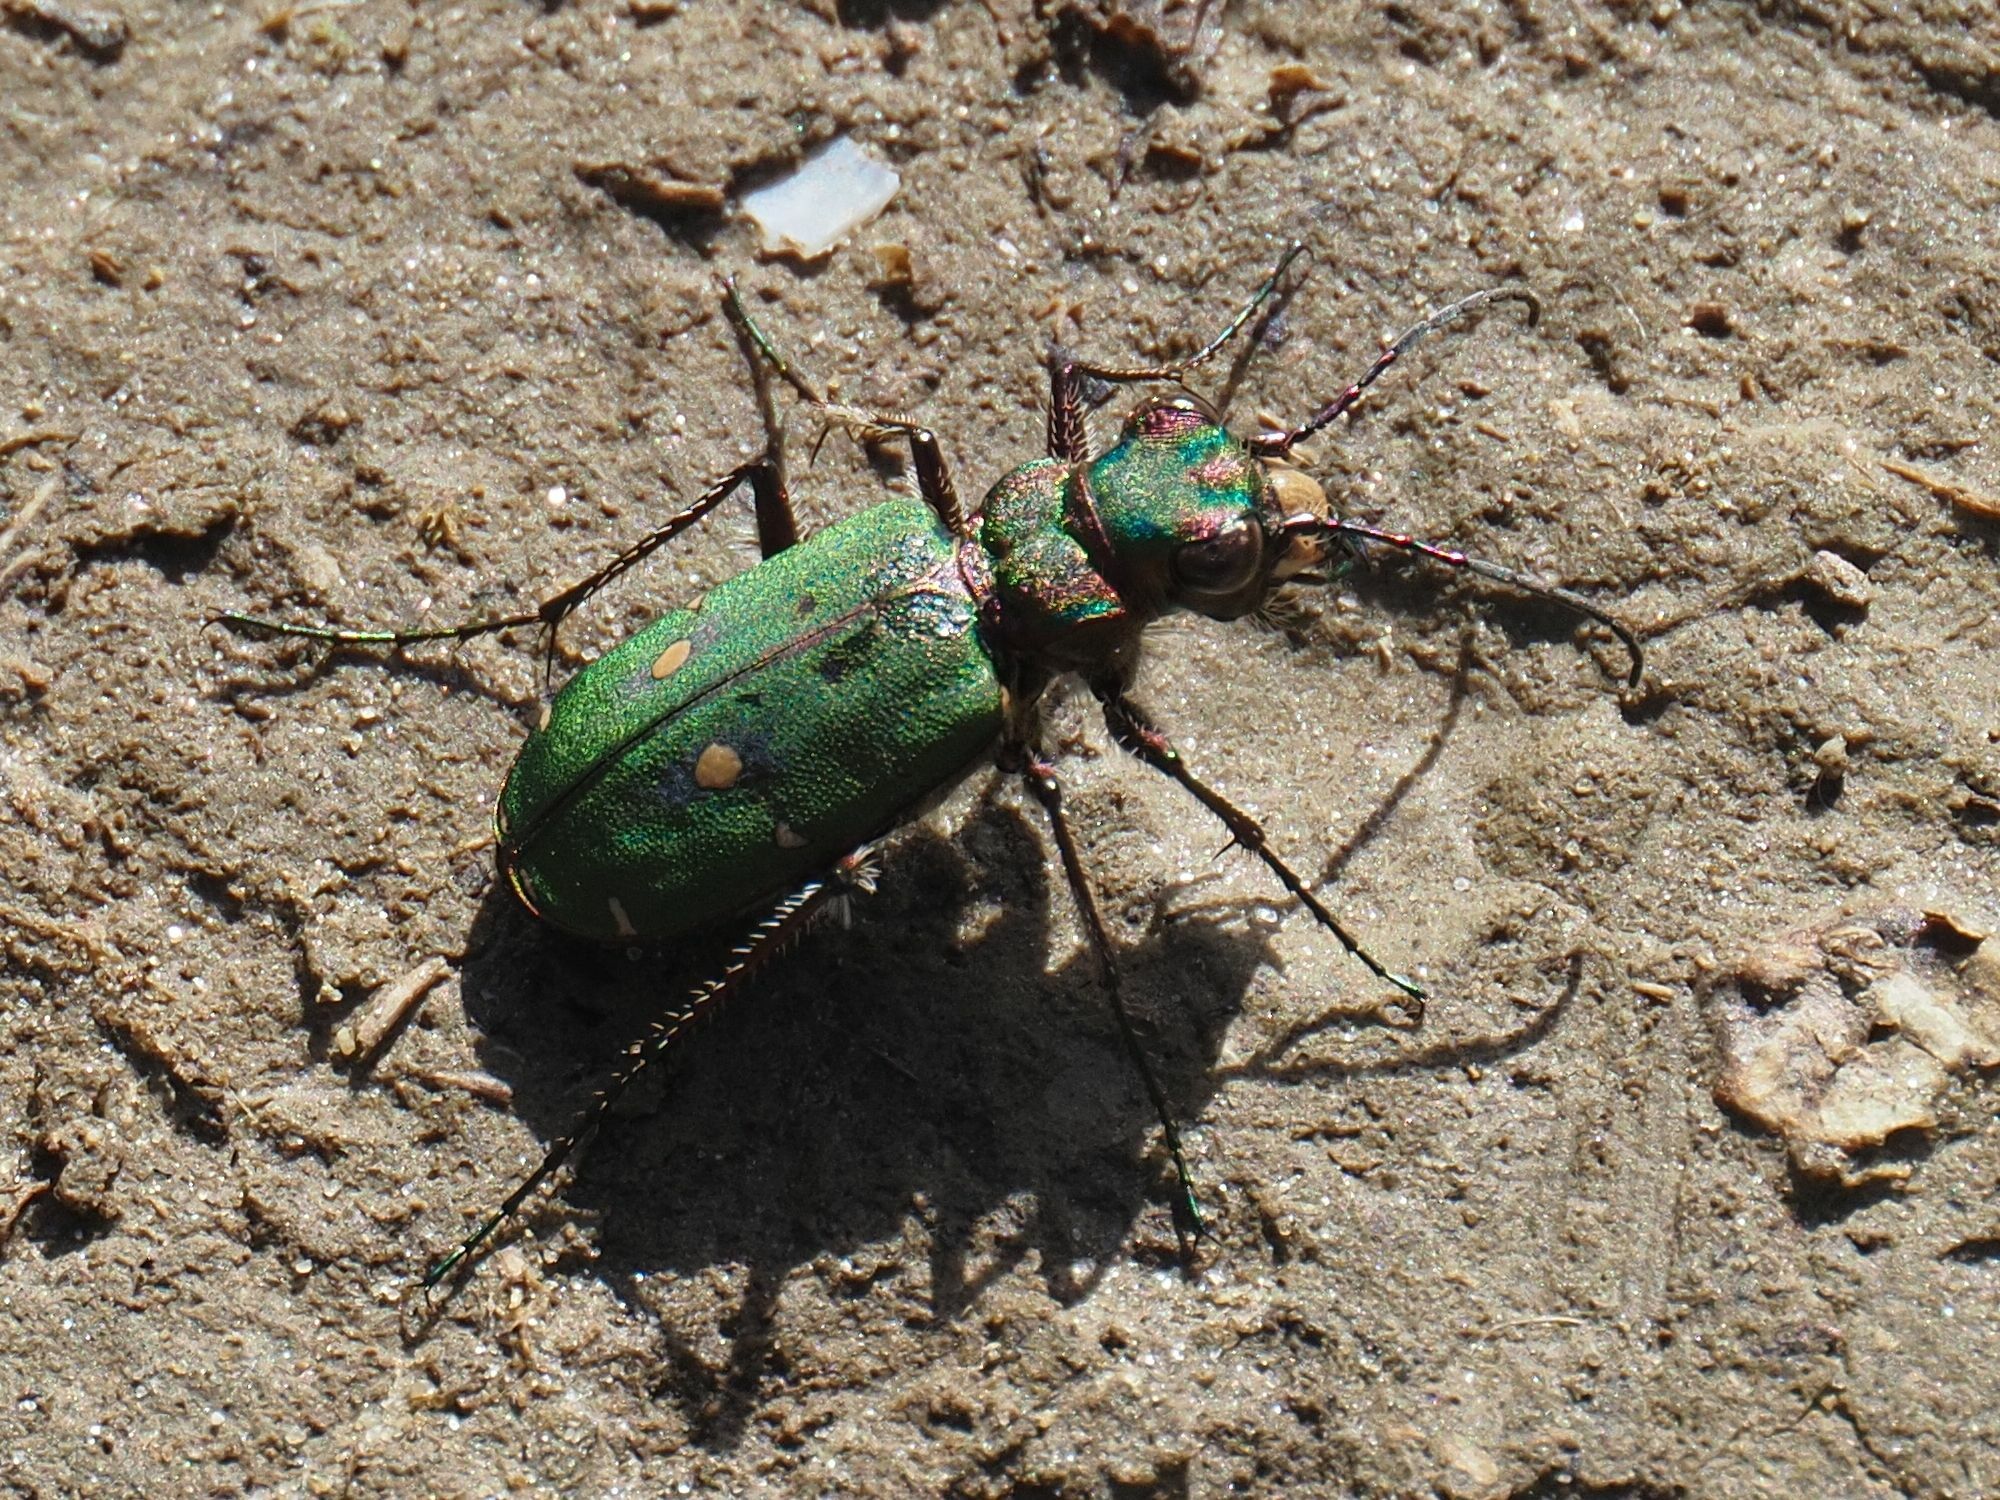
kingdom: Animalia
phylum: Arthropoda
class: Insecta
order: Coleoptera
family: Carabidae
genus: Cicindela
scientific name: Cicindela campestris
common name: Common tiger beetle
